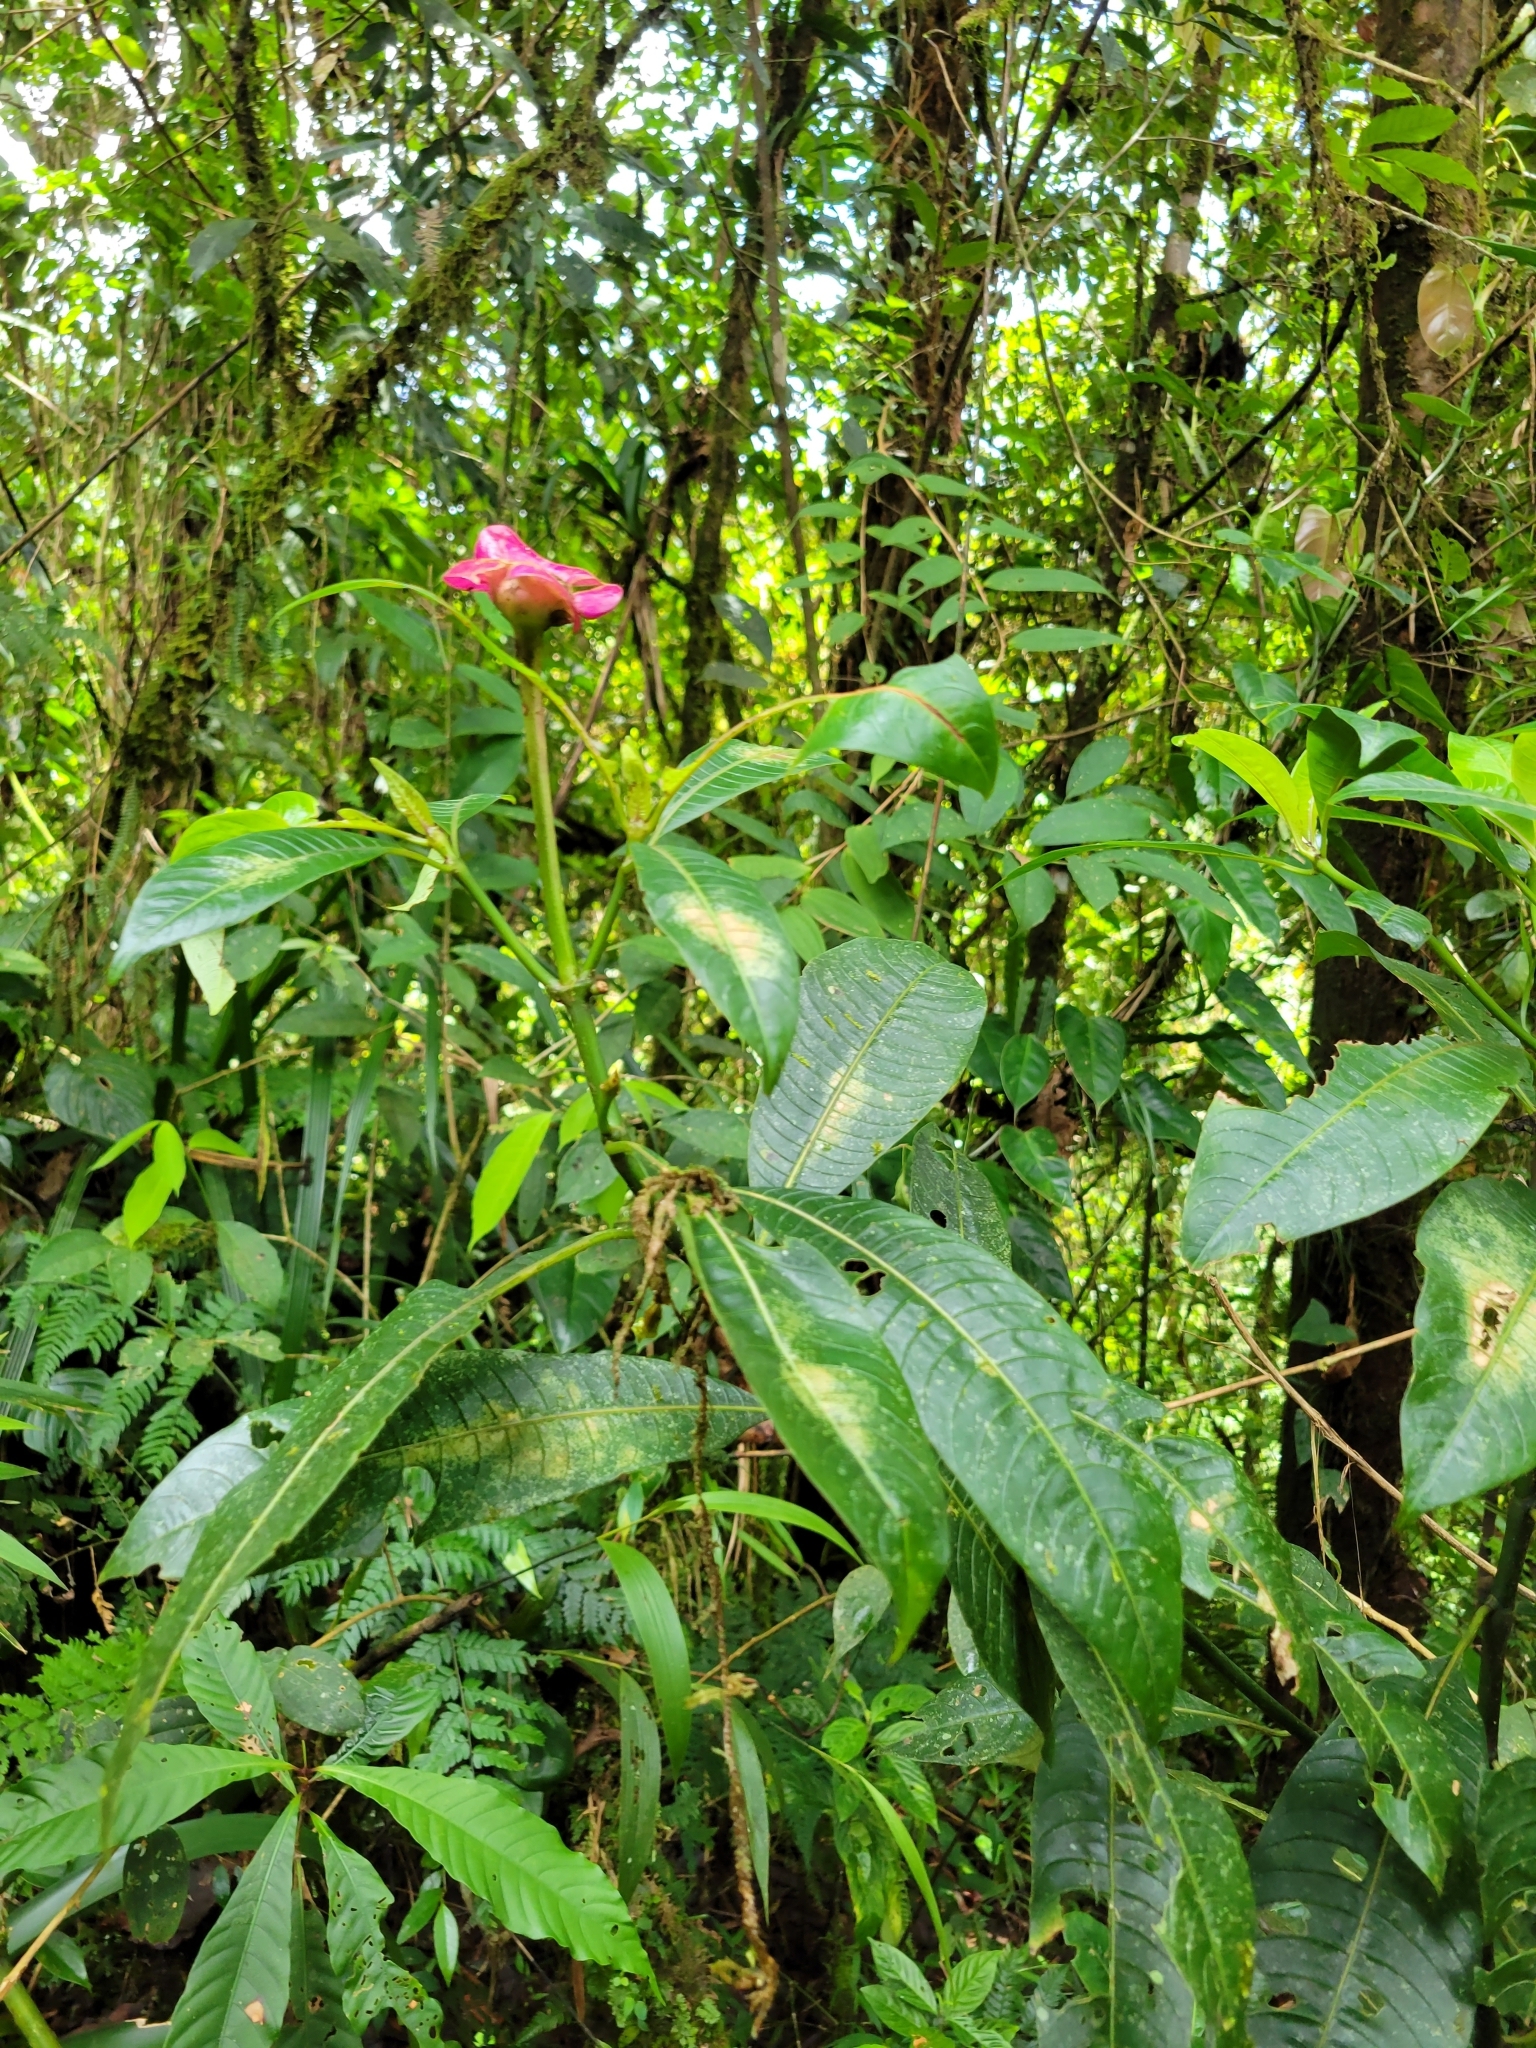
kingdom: Plantae
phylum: Tracheophyta
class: Magnoliopsida
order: Gentianales
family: Rubiaceae
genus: Palicourea
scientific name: Palicourea elata
